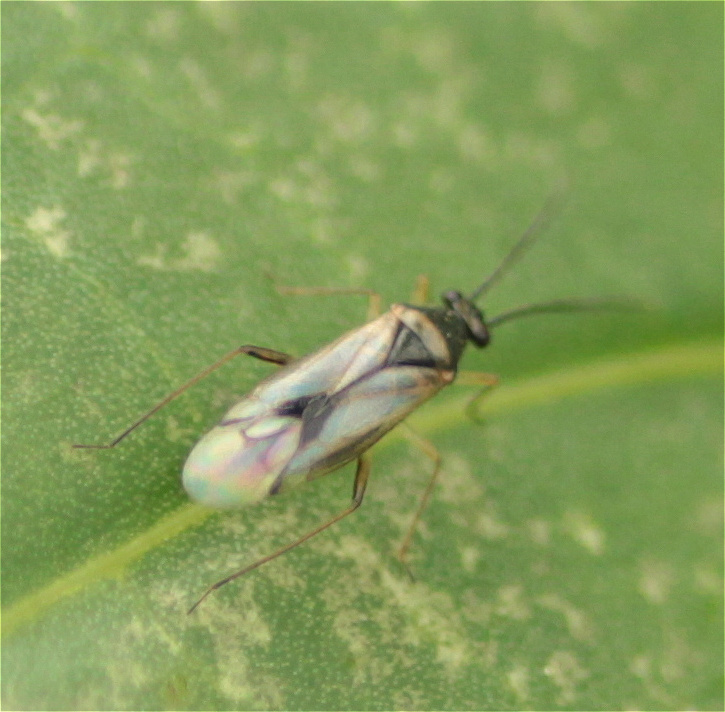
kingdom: Animalia
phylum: Arthropoda
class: Insecta
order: Hemiptera
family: Miridae
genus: Falconia
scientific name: Falconia incaica
